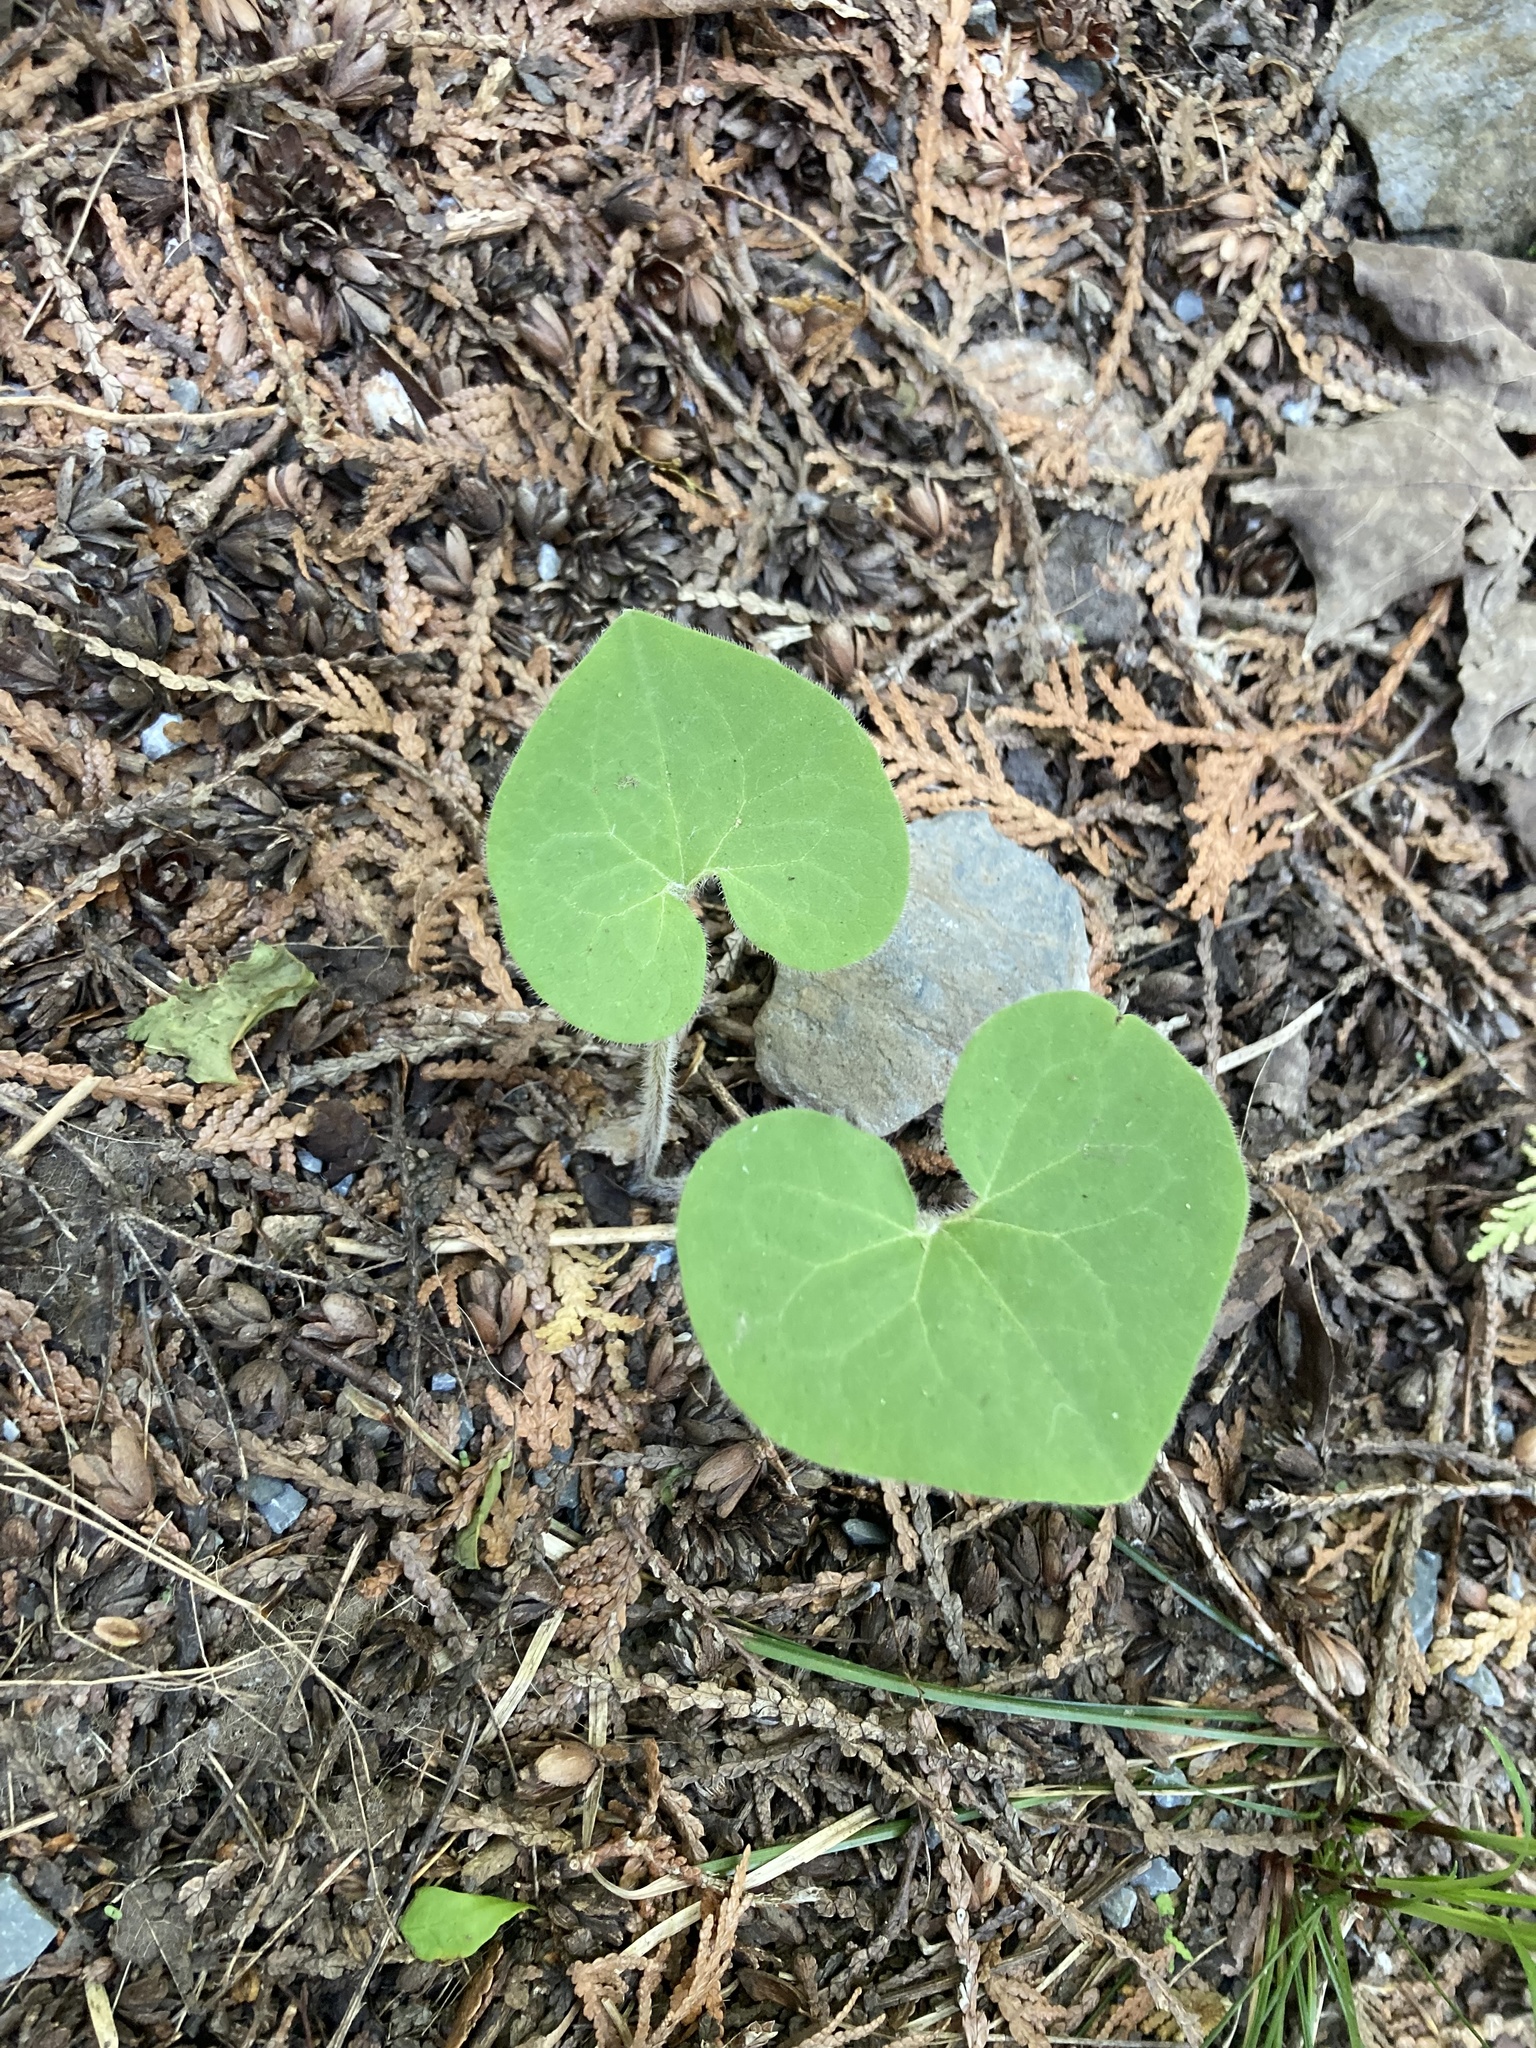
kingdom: Plantae
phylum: Tracheophyta
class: Magnoliopsida
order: Piperales
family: Aristolochiaceae
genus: Asarum
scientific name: Asarum canadense
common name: Wild ginger
